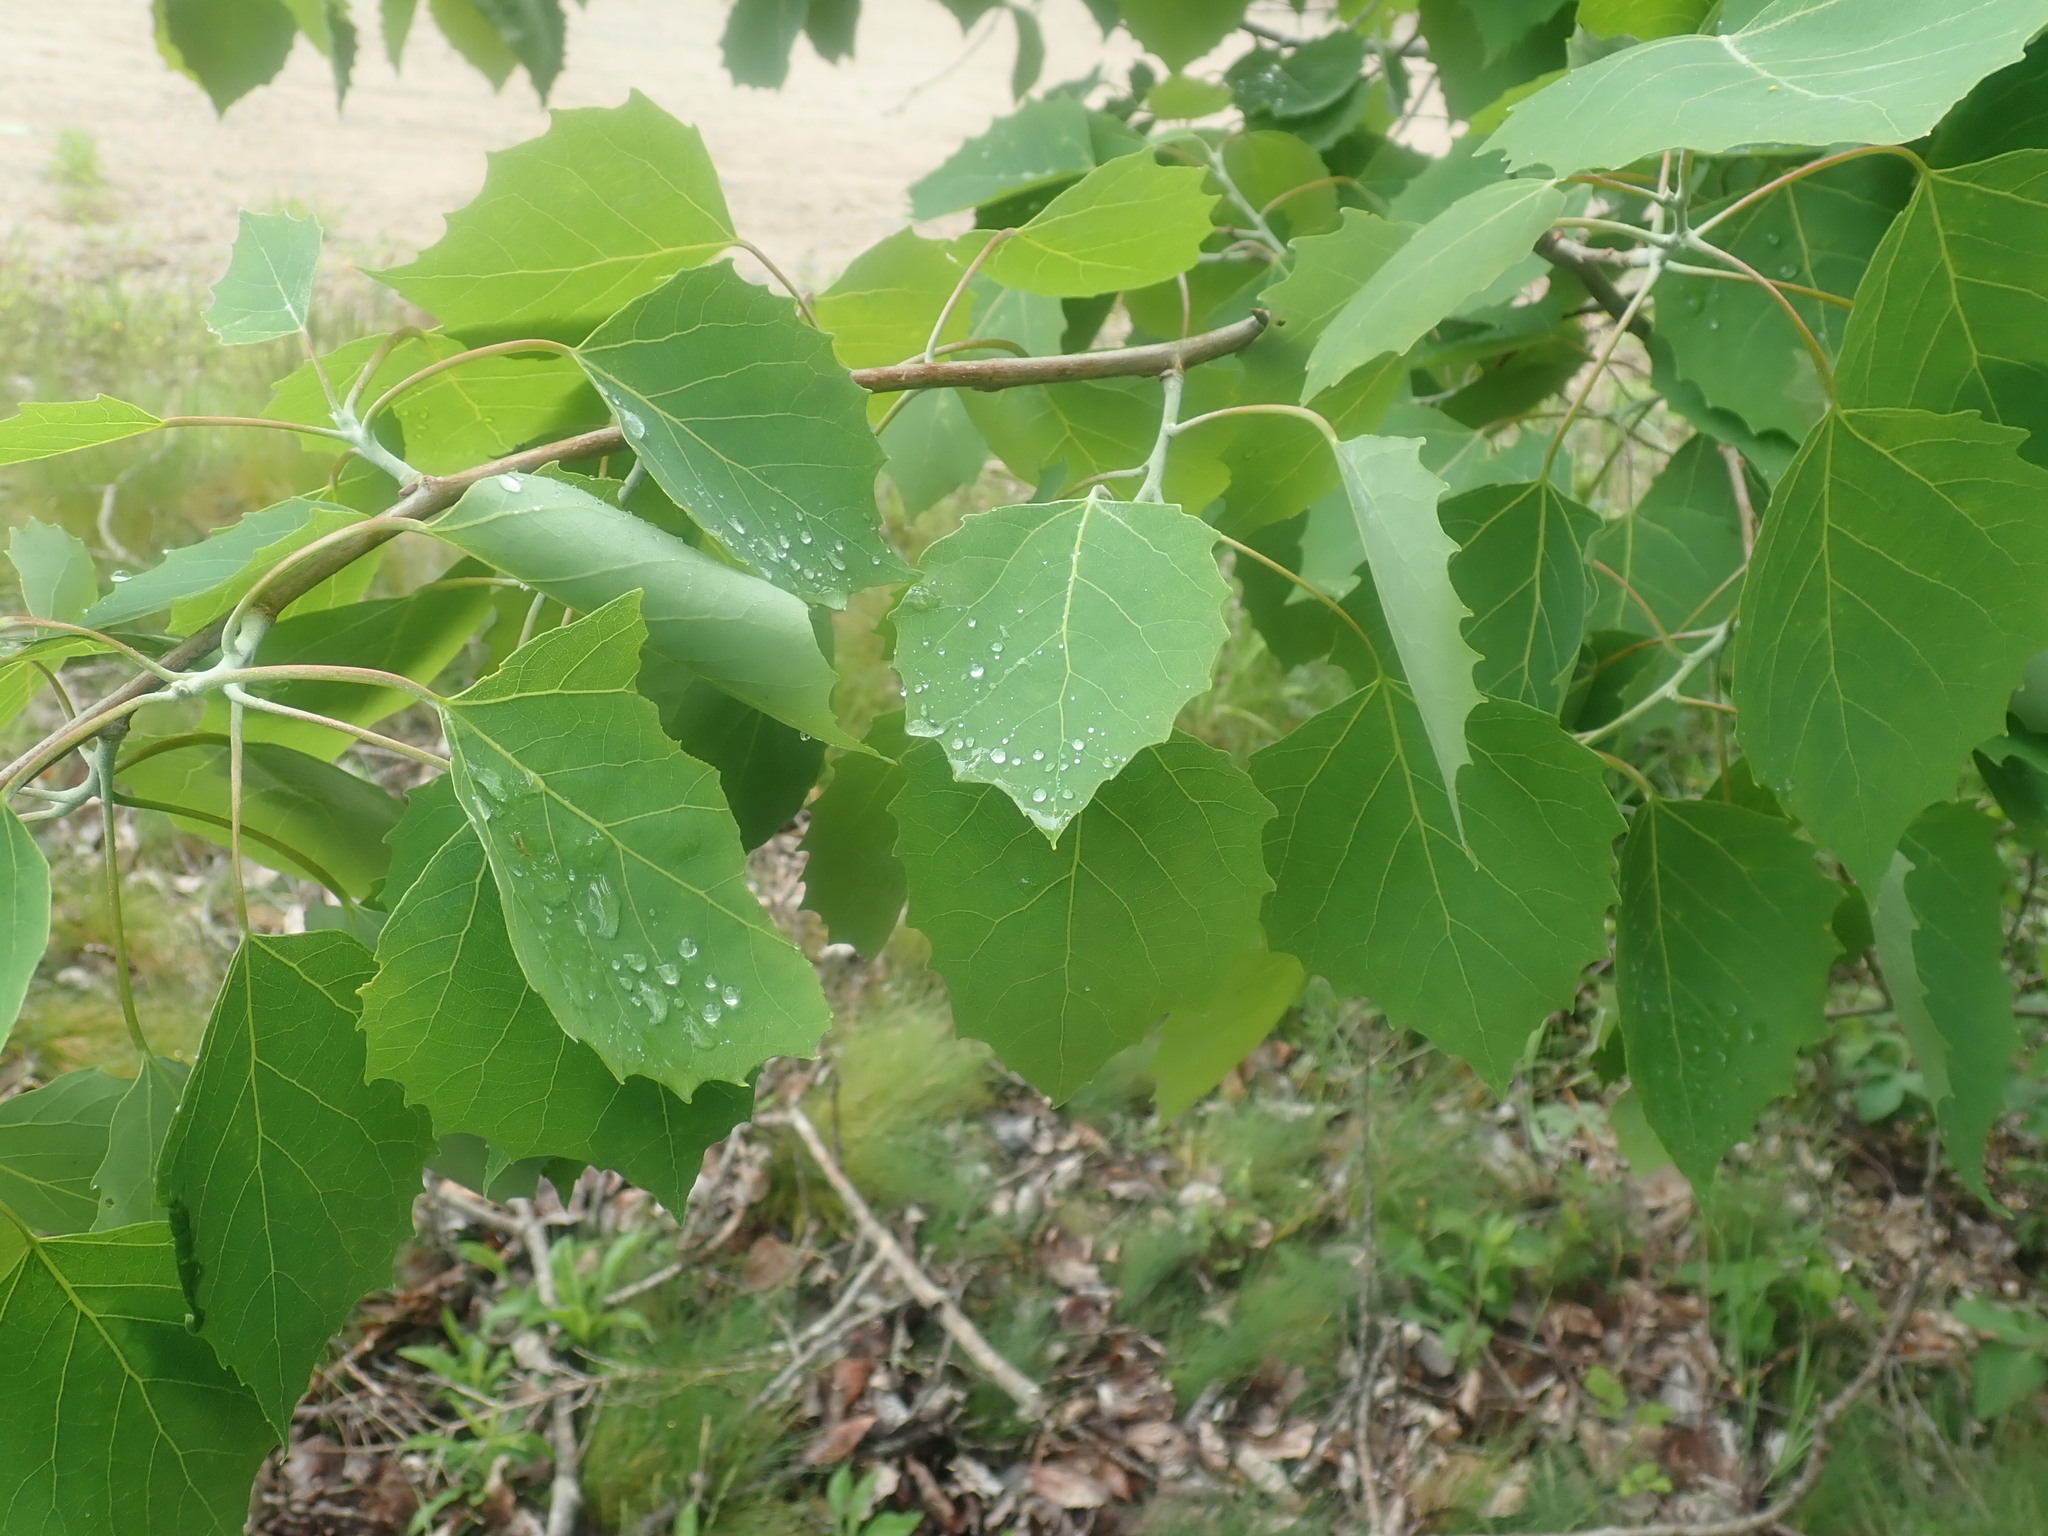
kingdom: Plantae
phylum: Tracheophyta
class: Magnoliopsida
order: Malpighiales
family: Salicaceae
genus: Populus
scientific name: Populus grandidentata
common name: Bigtooth aspen
